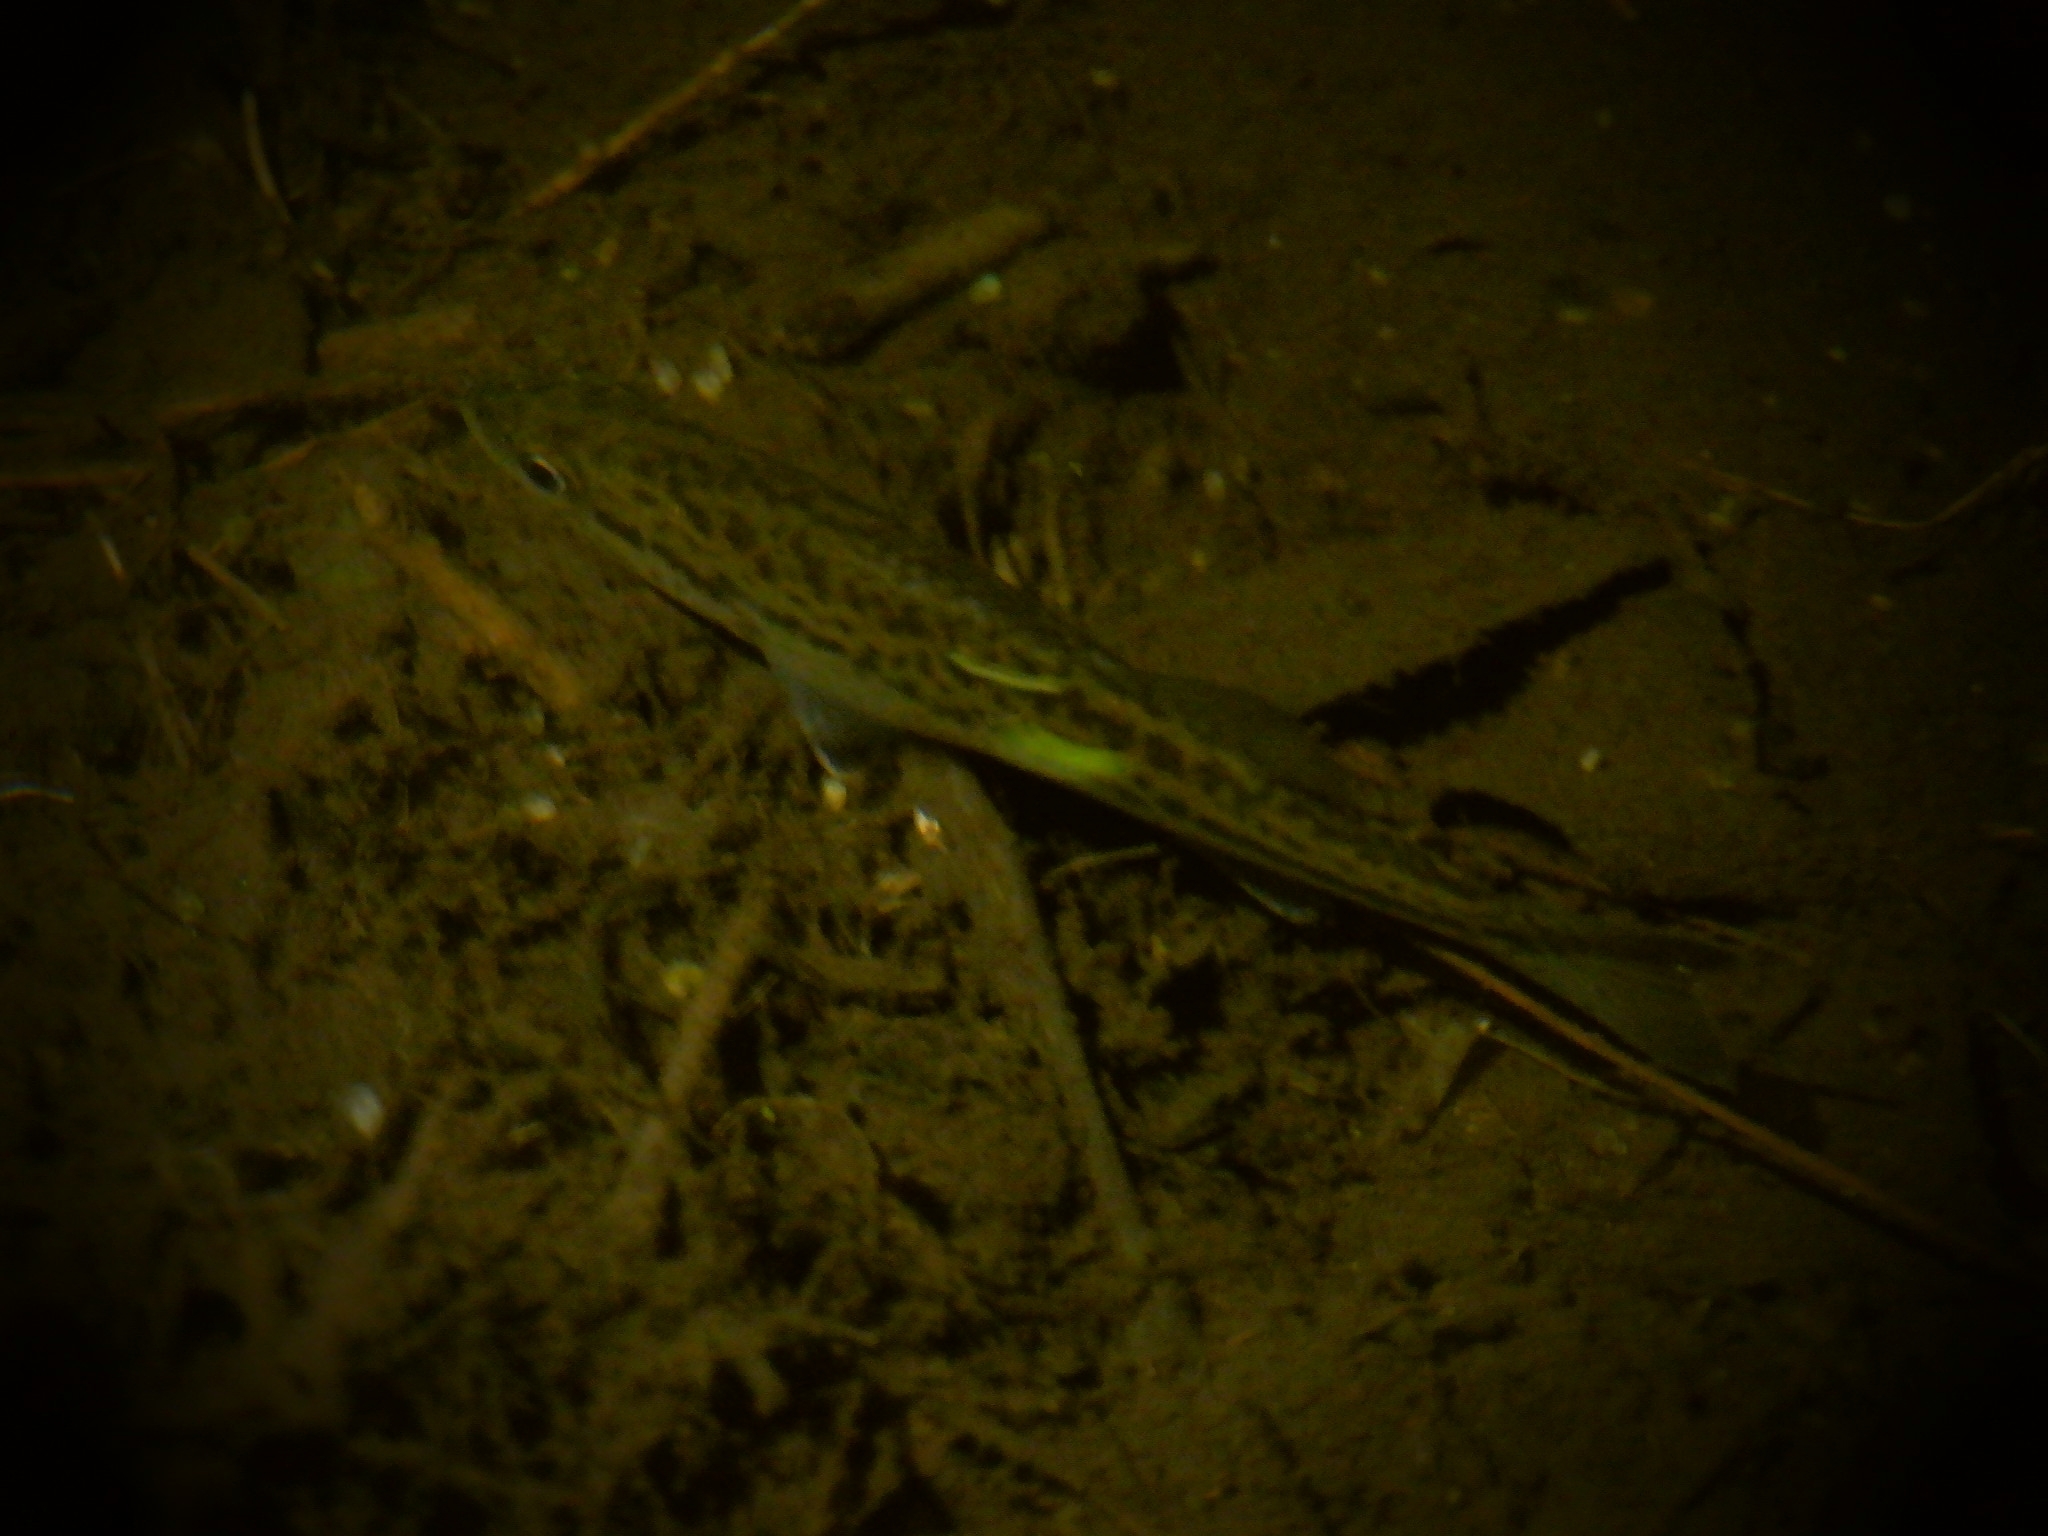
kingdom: Animalia
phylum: Chordata
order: Perciformes
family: Centrarchidae
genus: Micropterus
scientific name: Micropterus
